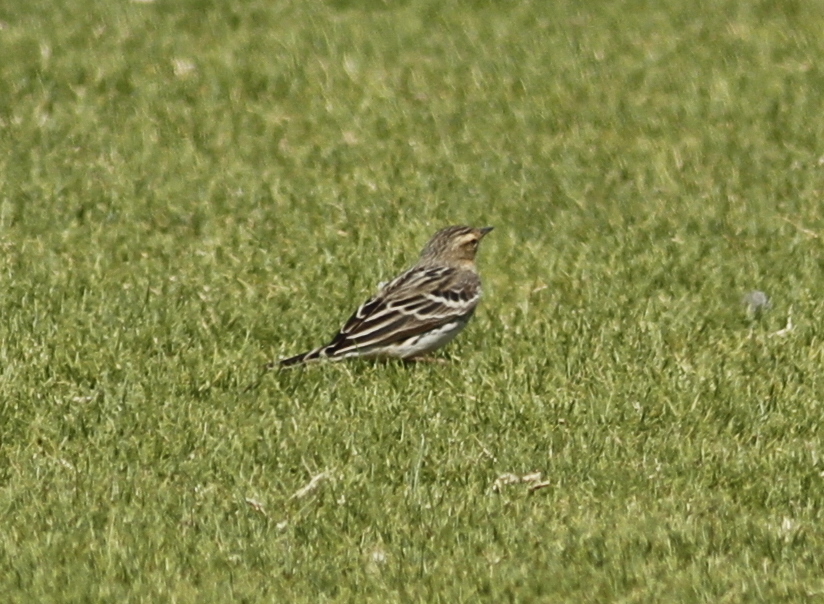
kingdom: Animalia
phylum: Chordata
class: Aves
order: Passeriformes
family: Motacillidae
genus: Anthus
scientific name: Anthus cervinus
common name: Red-throated pipit
